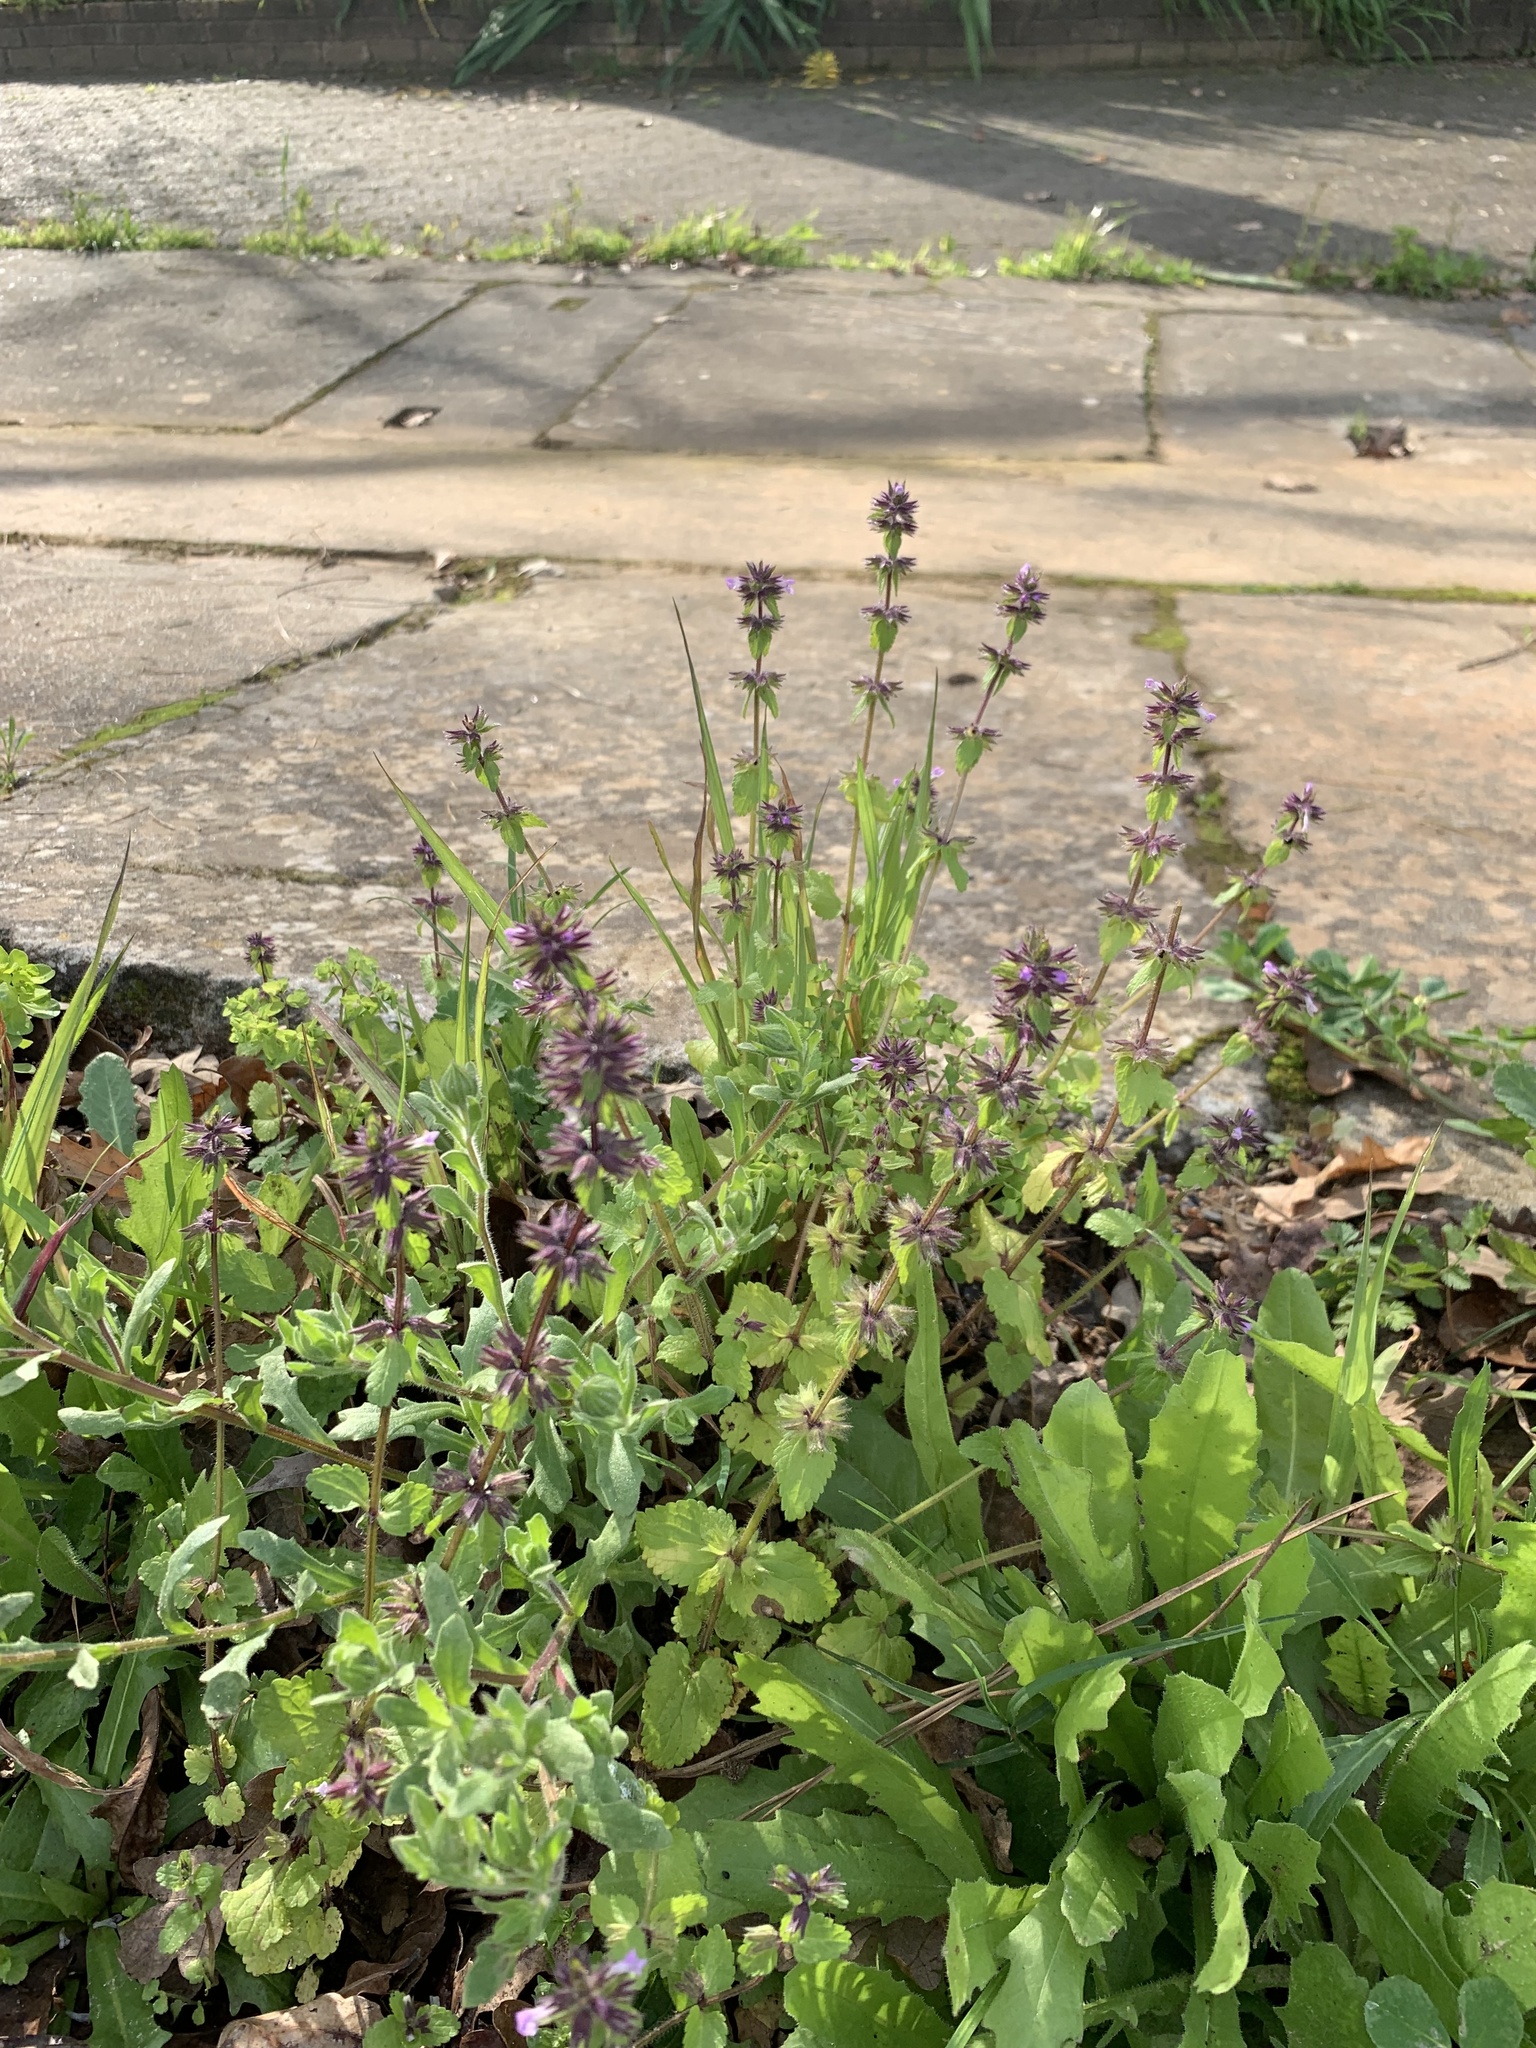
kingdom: Plantae
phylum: Tracheophyta
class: Magnoliopsida
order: Lamiales
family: Lamiaceae
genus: Stachys
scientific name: Stachys arvensis
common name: Field woundwort
